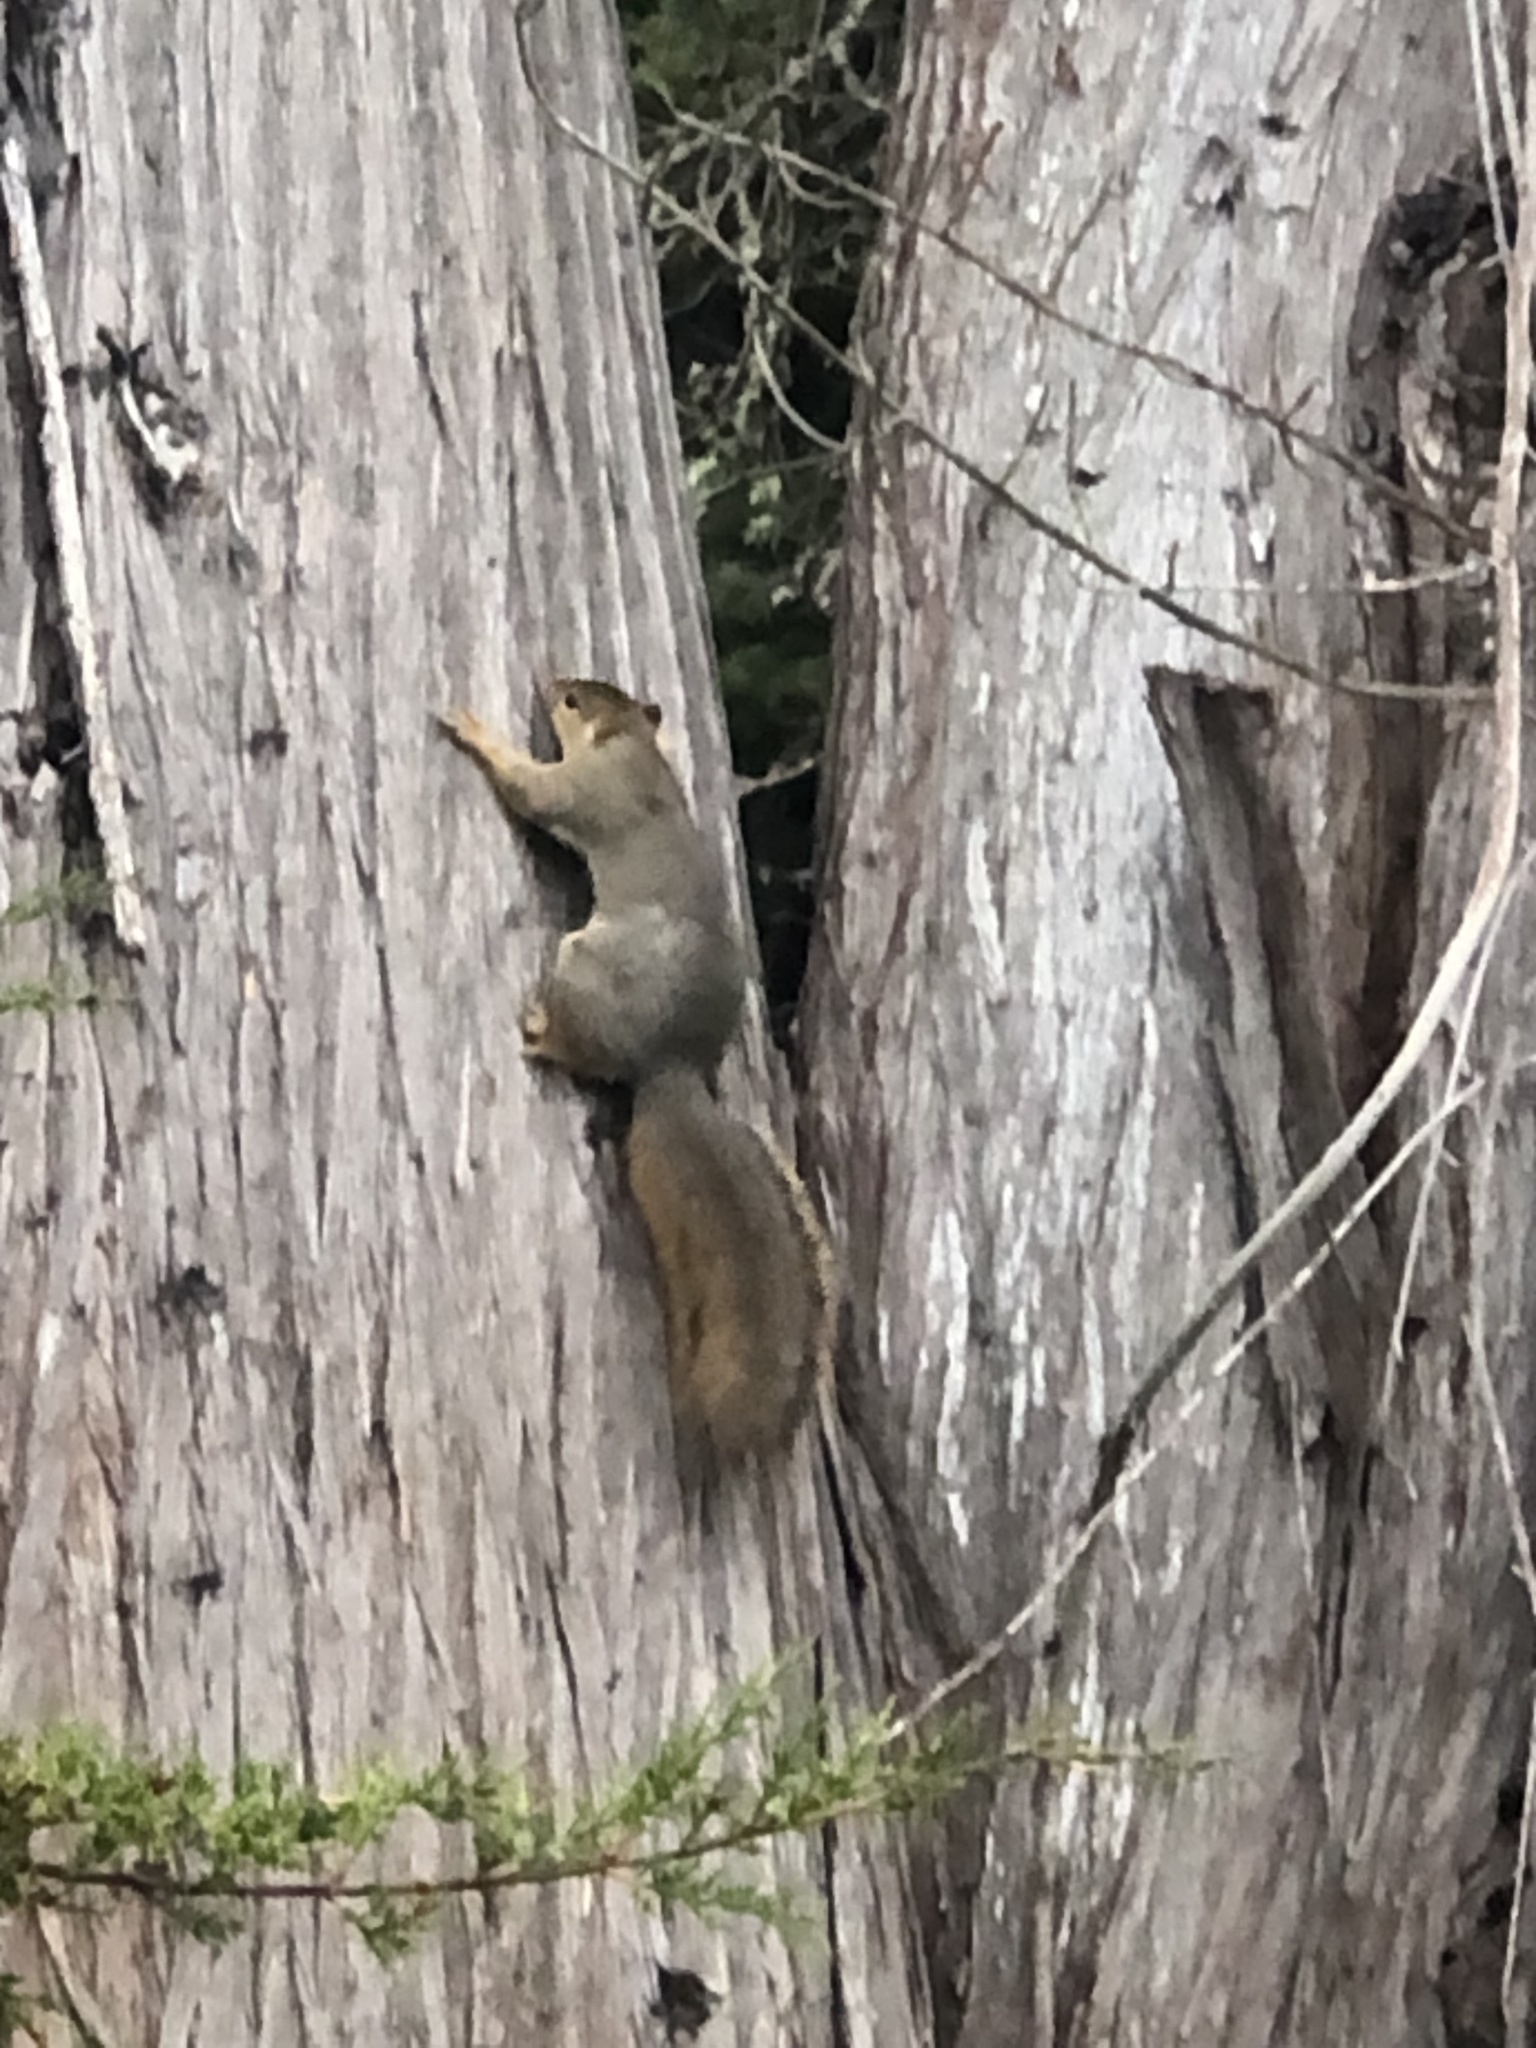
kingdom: Animalia
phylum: Chordata
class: Mammalia
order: Rodentia
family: Sciuridae
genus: Sciurus
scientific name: Sciurus niger
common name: Fox squirrel
